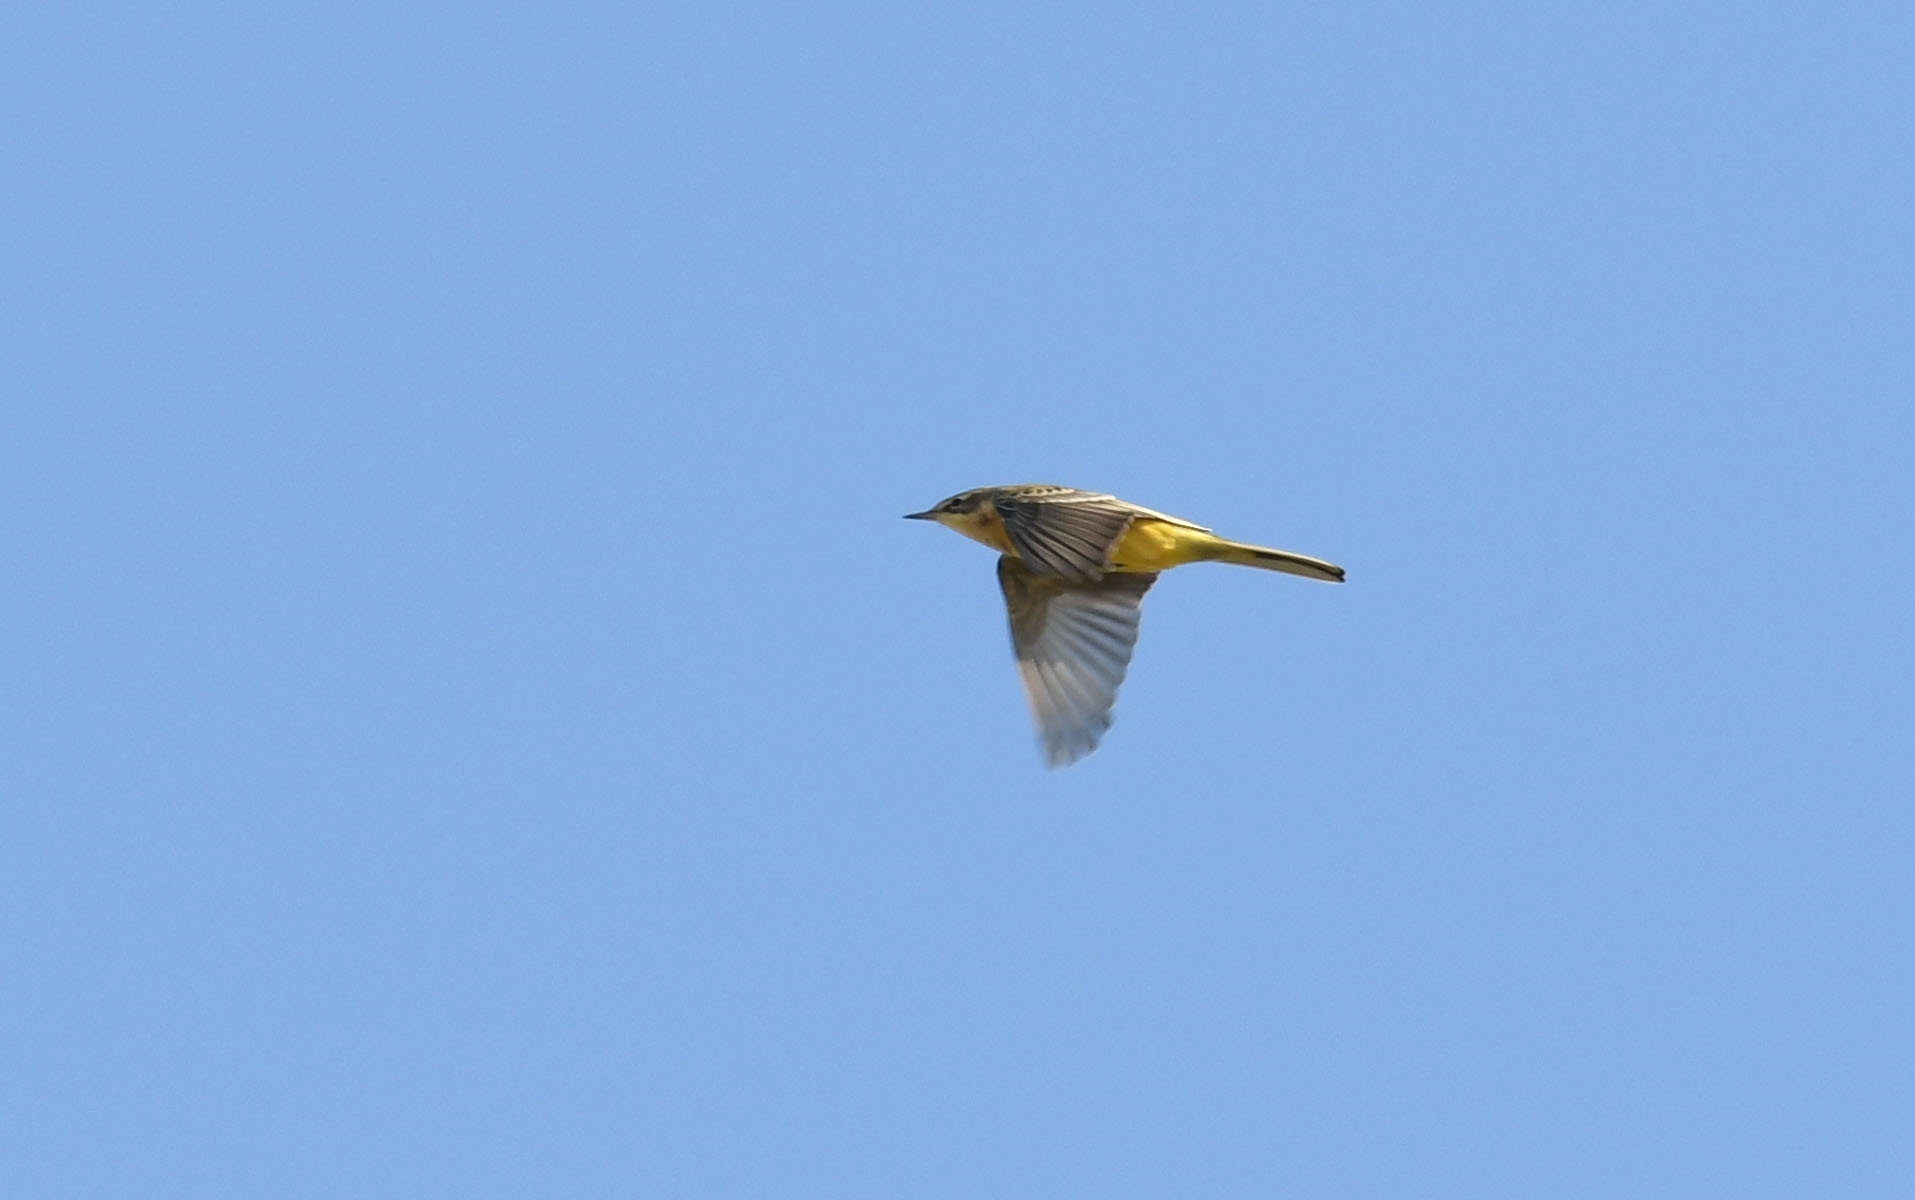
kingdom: Animalia
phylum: Chordata
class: Aves
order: Passeriformes
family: Motacillidae
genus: Motacilla
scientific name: Motacilla flava
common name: Western yellow wagtail
